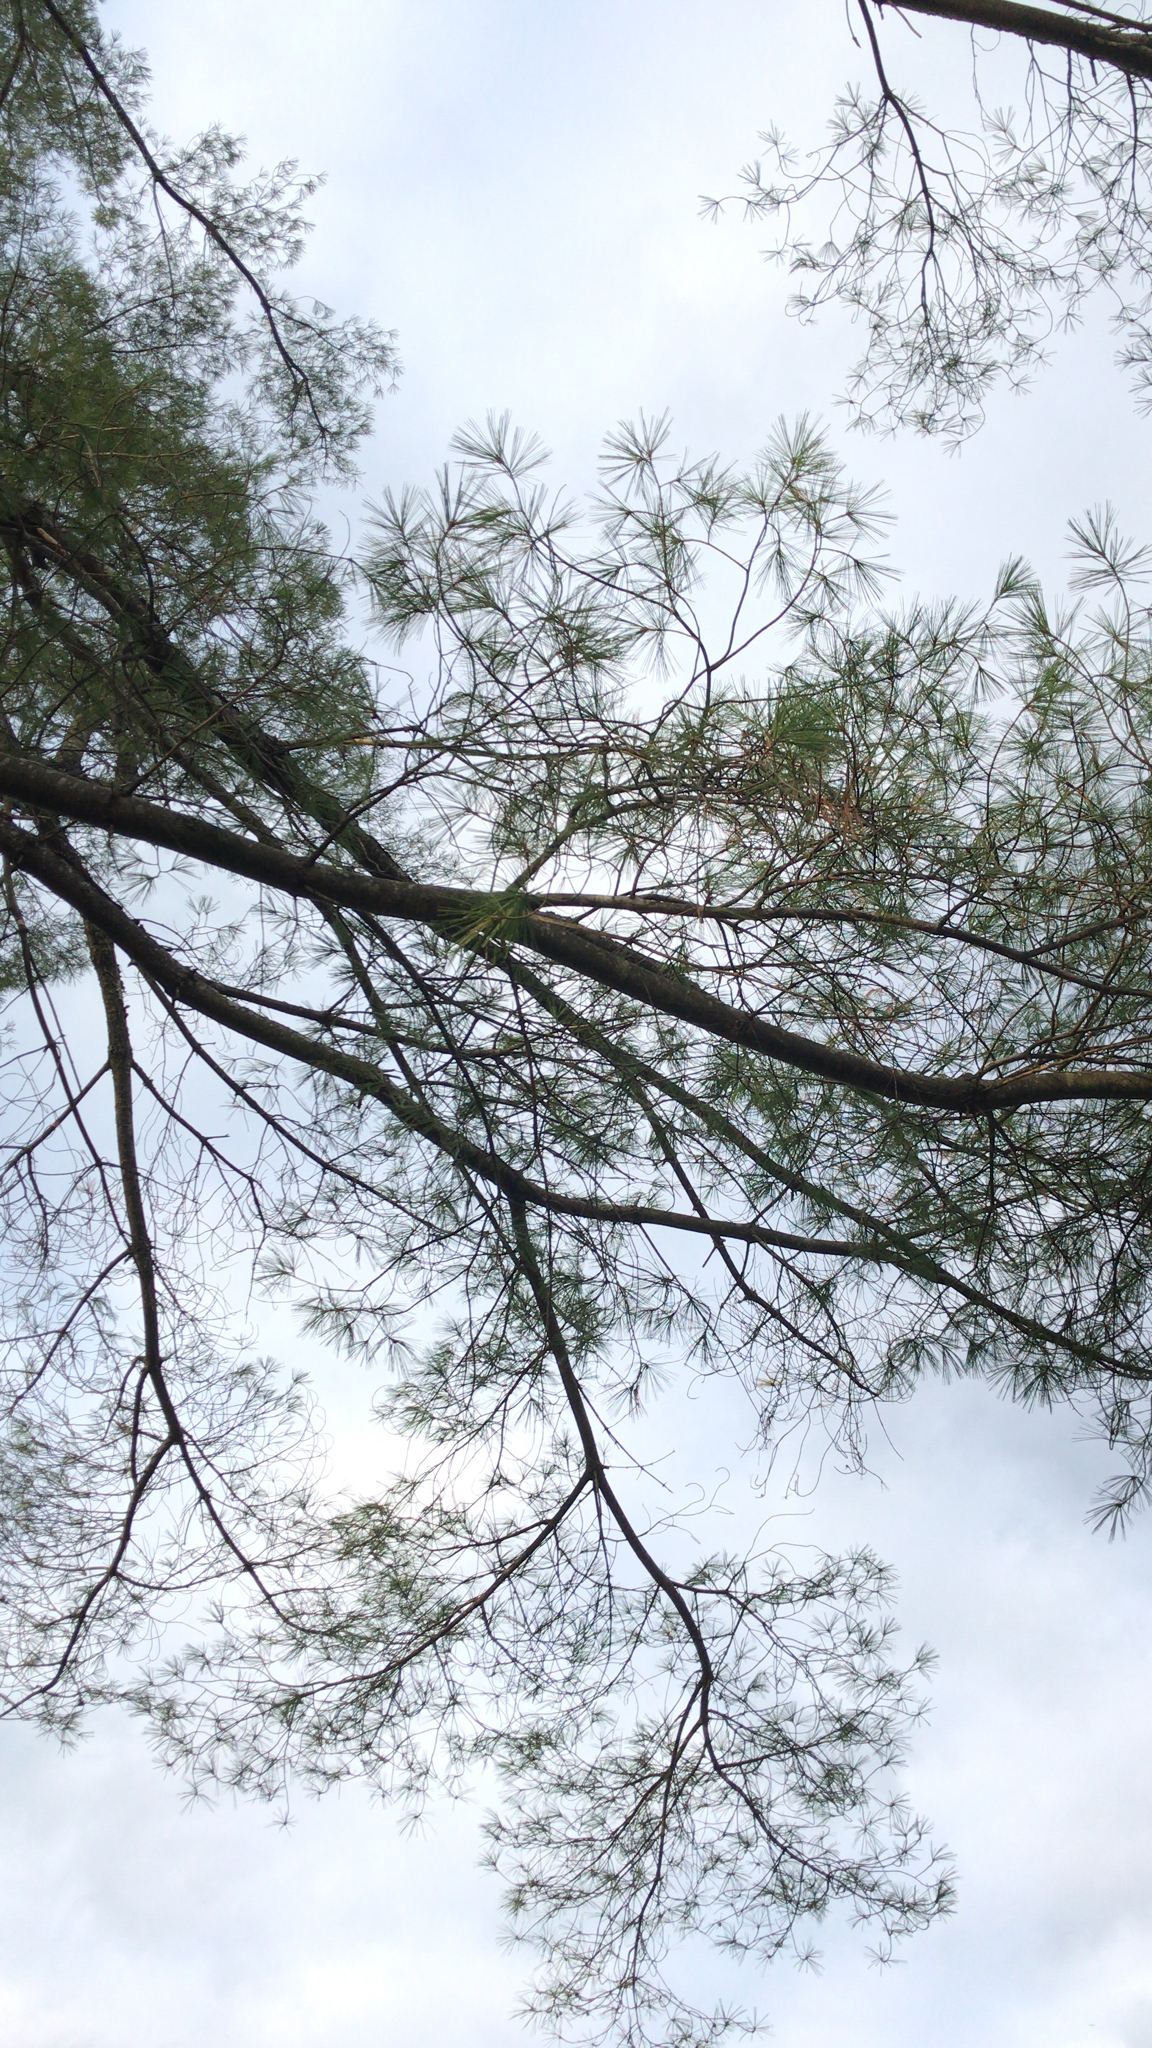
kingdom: Plantae
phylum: Tracheophyta
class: Pinopsida
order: Pinales
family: Pinaceae
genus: Pinus
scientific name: Pinus strobus
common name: Weymouth pine
